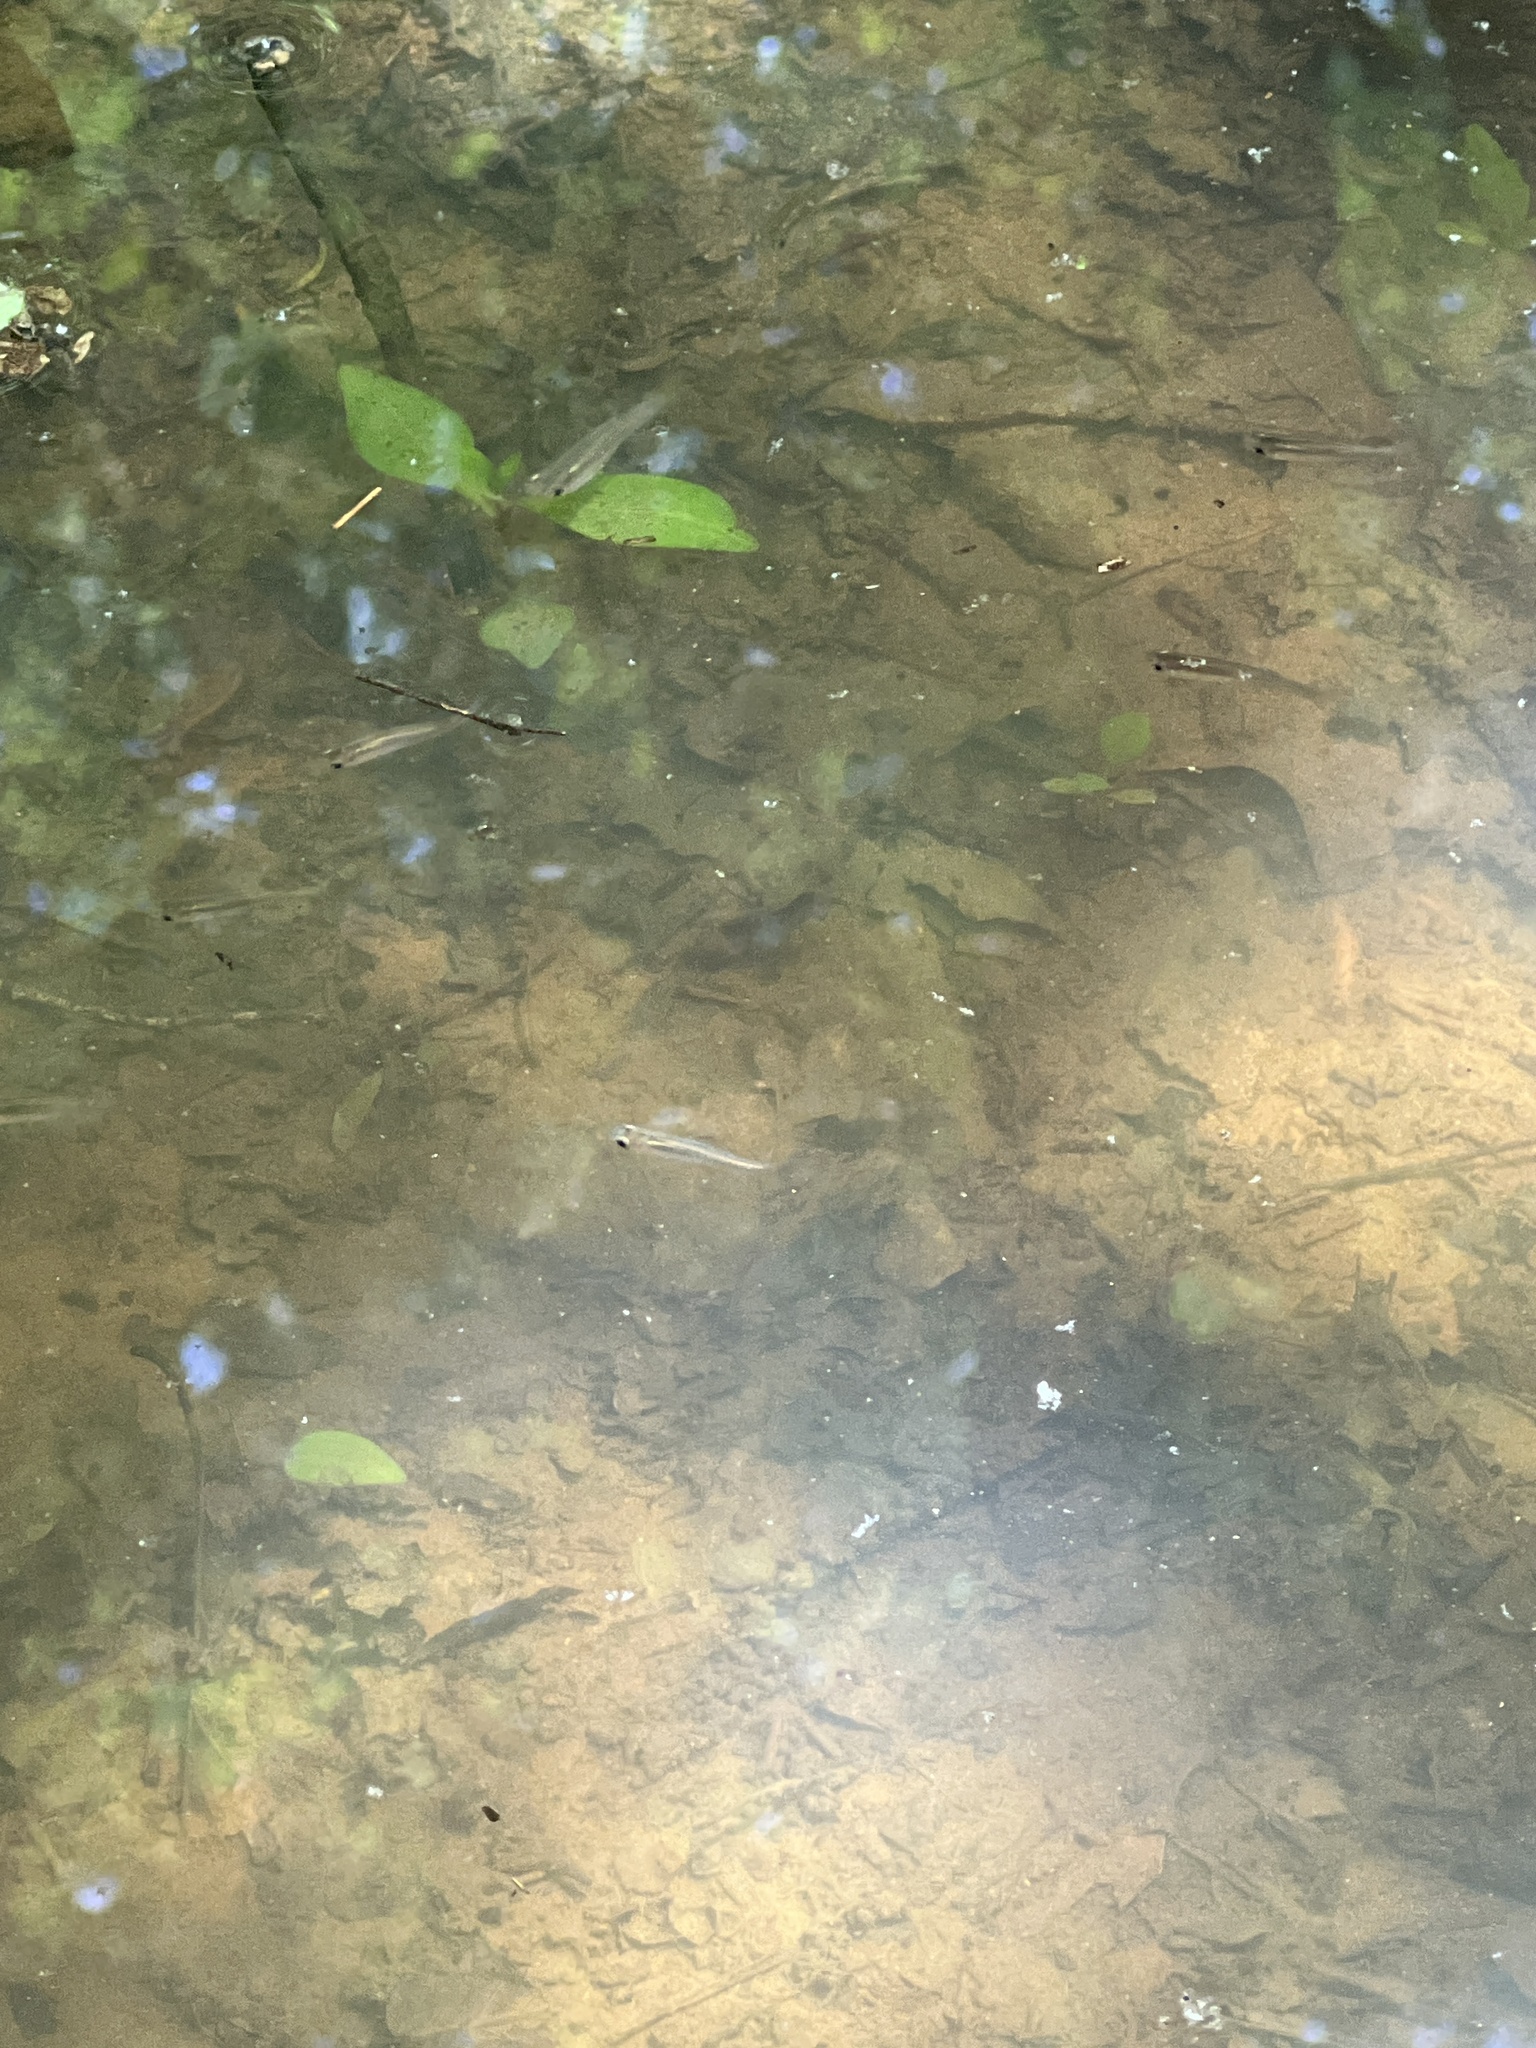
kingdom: Animalia
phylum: Chordata
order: Cyprinodontiformes
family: Poeciliidae
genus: Gambusia
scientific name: Gambusia holbrooki
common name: Eastern mosquitofish
